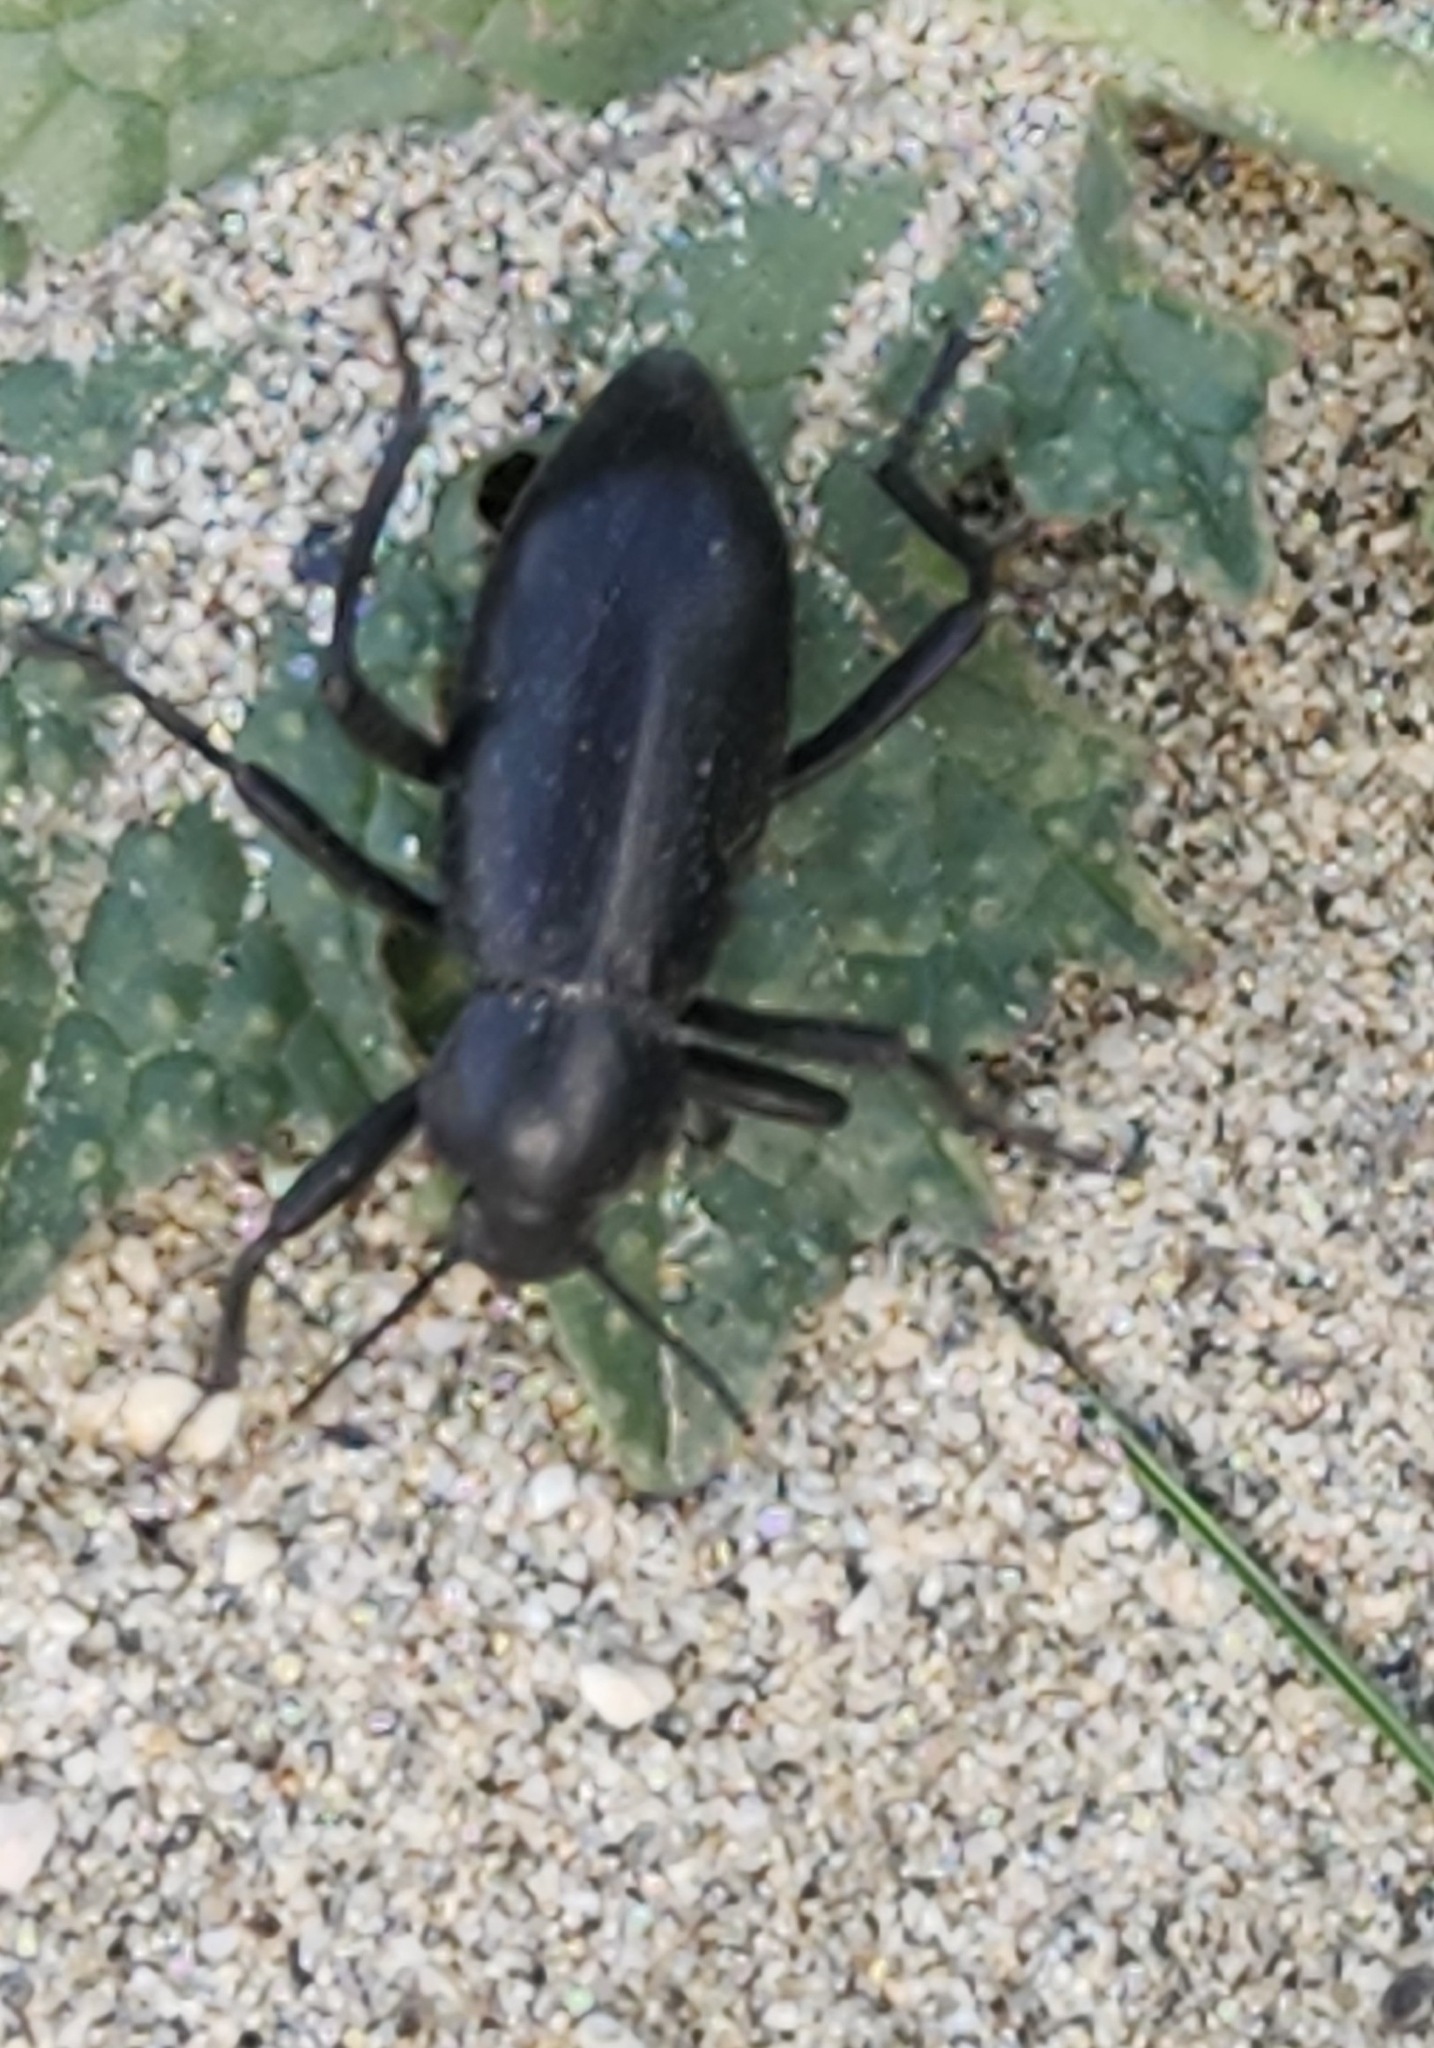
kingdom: Animalia
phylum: Arthropoda
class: Insecta
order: Coleoptera
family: Tenebrionidae
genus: Eleodes
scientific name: Eleodes armata
